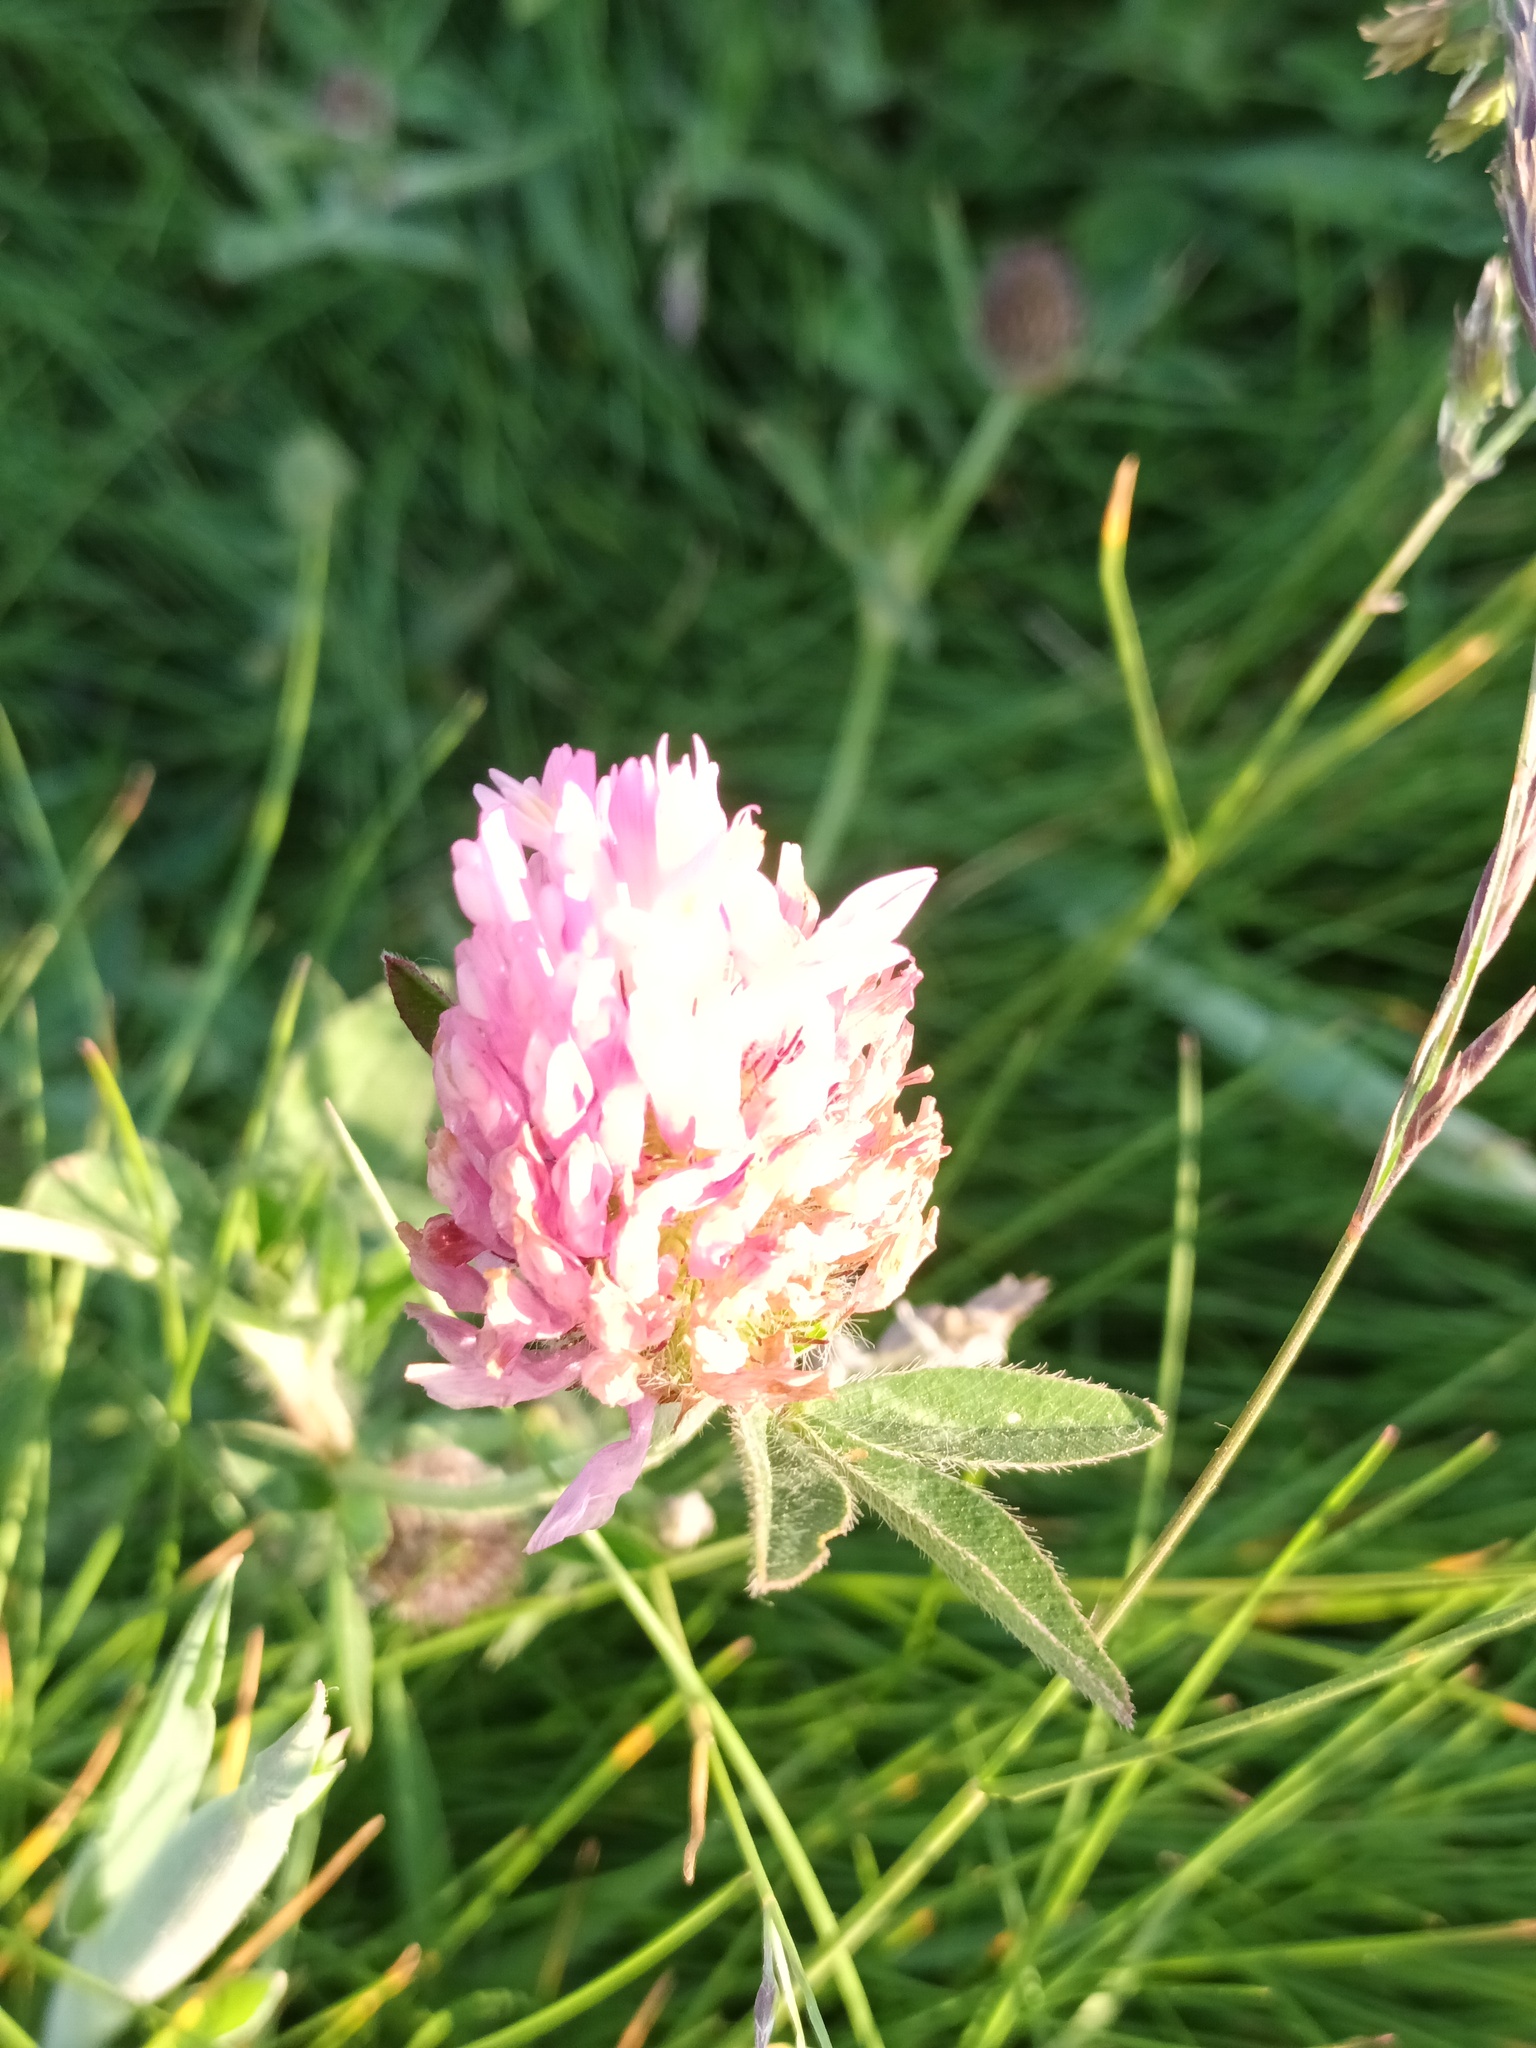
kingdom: Plantae
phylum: Tracheophyta
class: Magnoliopsida
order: Fabales
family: Fabaceae
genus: Trifolium
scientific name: Trifolium pratense
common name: Red clover
